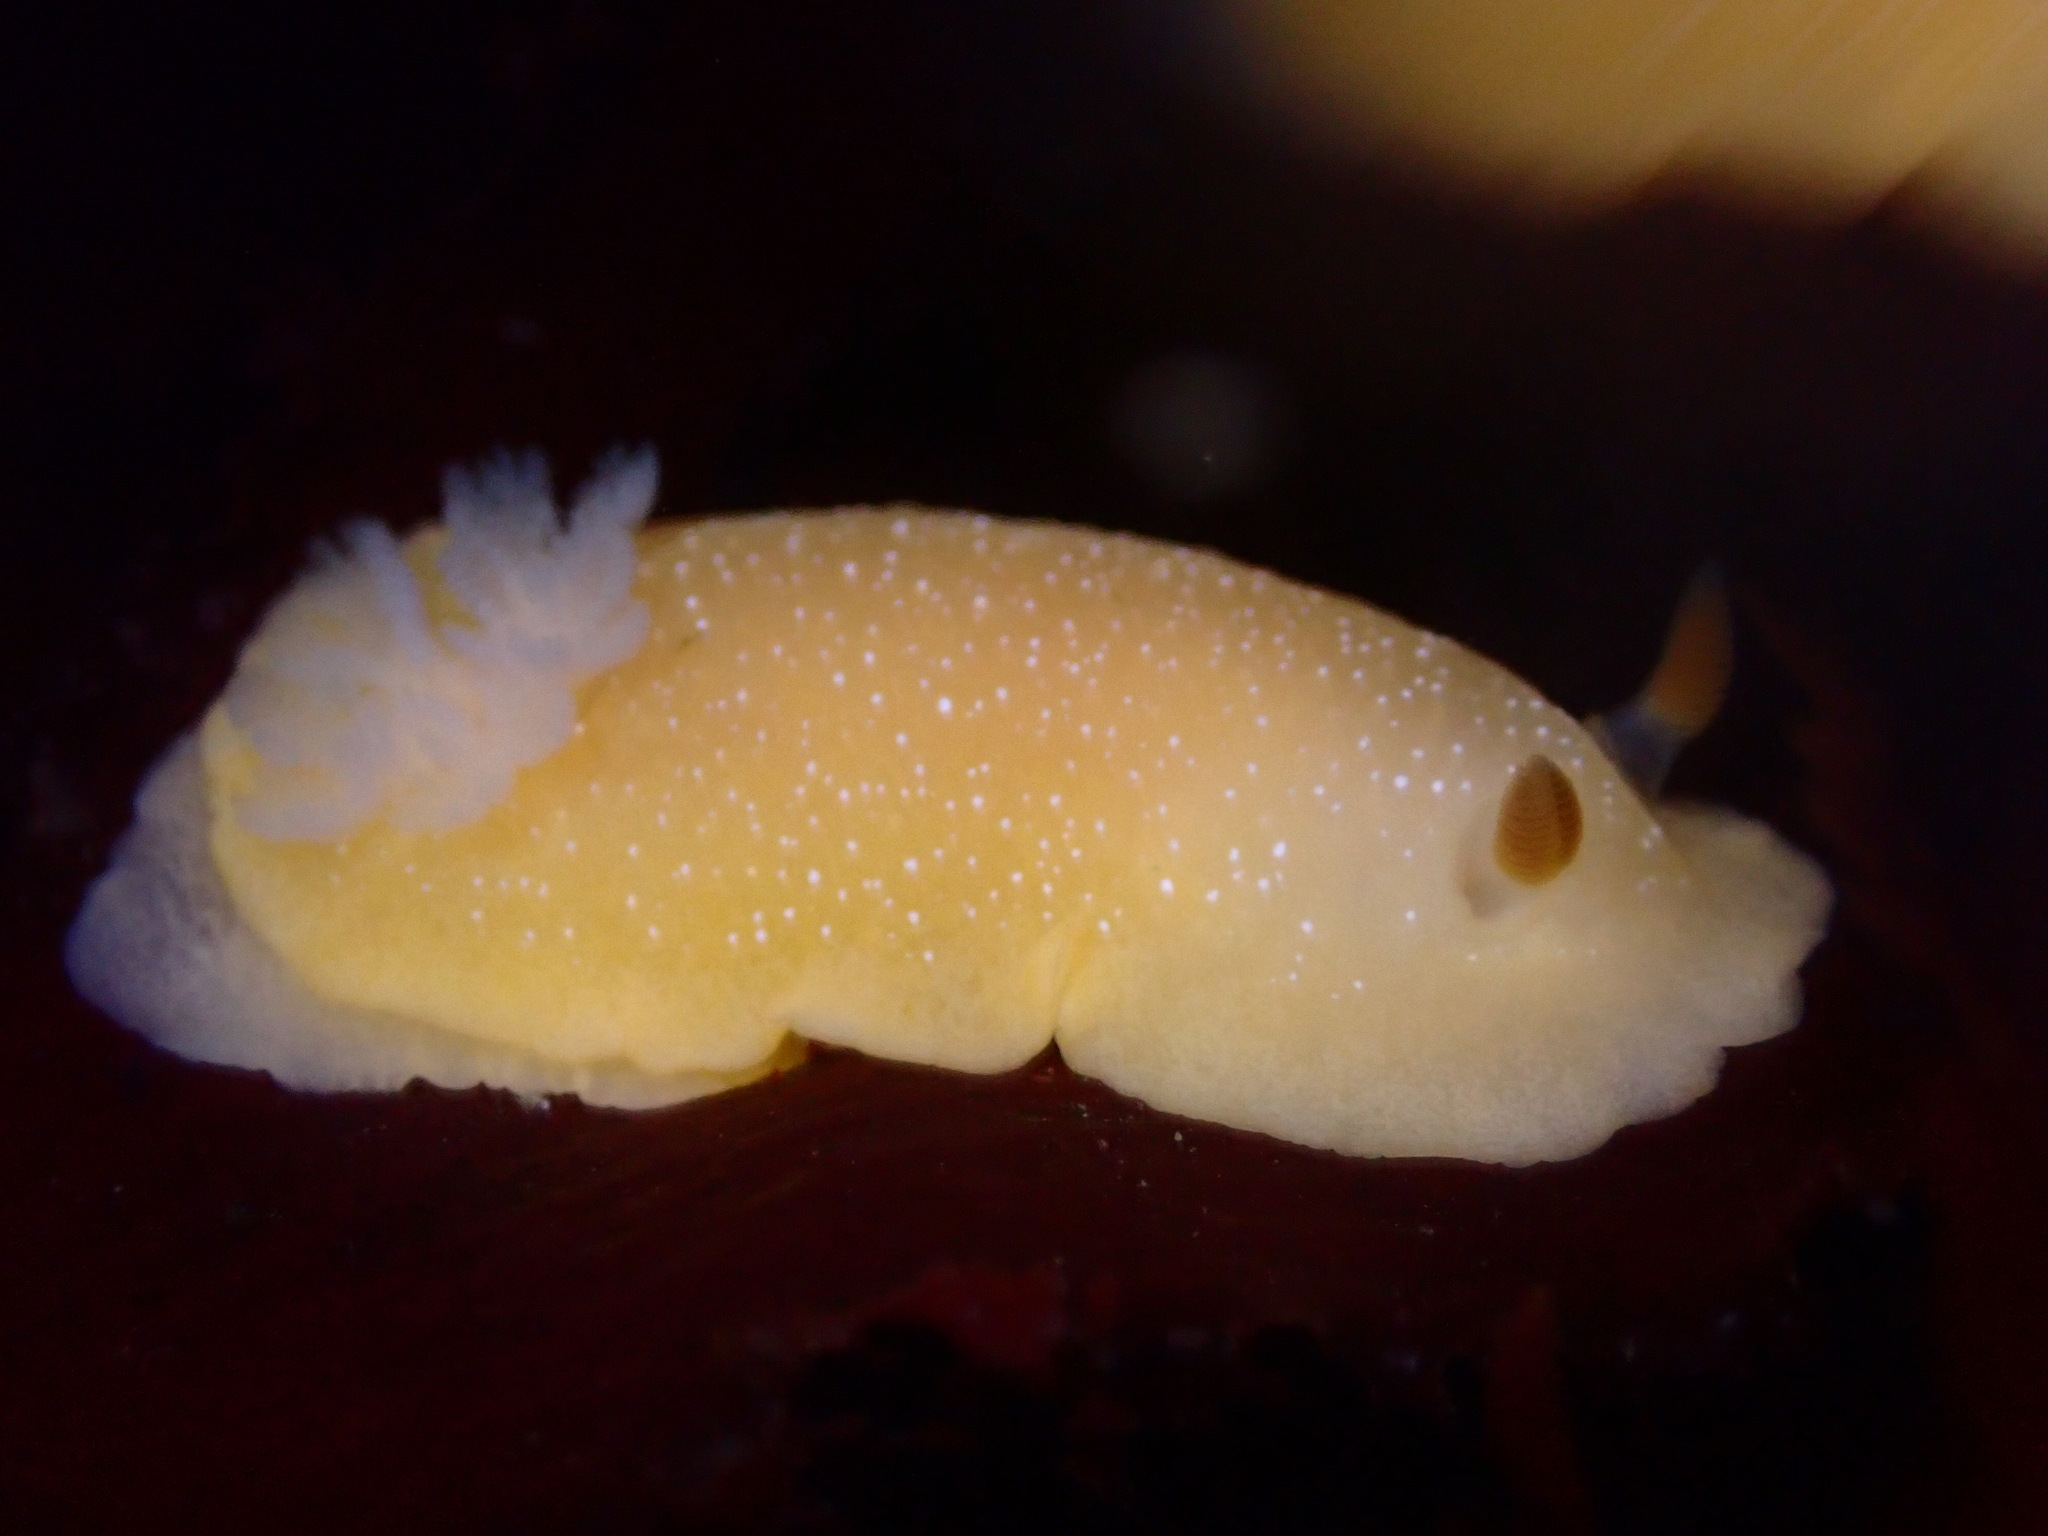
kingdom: Animalia
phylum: Mollusca
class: Gastropoda
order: Nudibranchia
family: Dendrodorididae
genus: Doriopsilla
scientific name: Doriopsilla fulva
